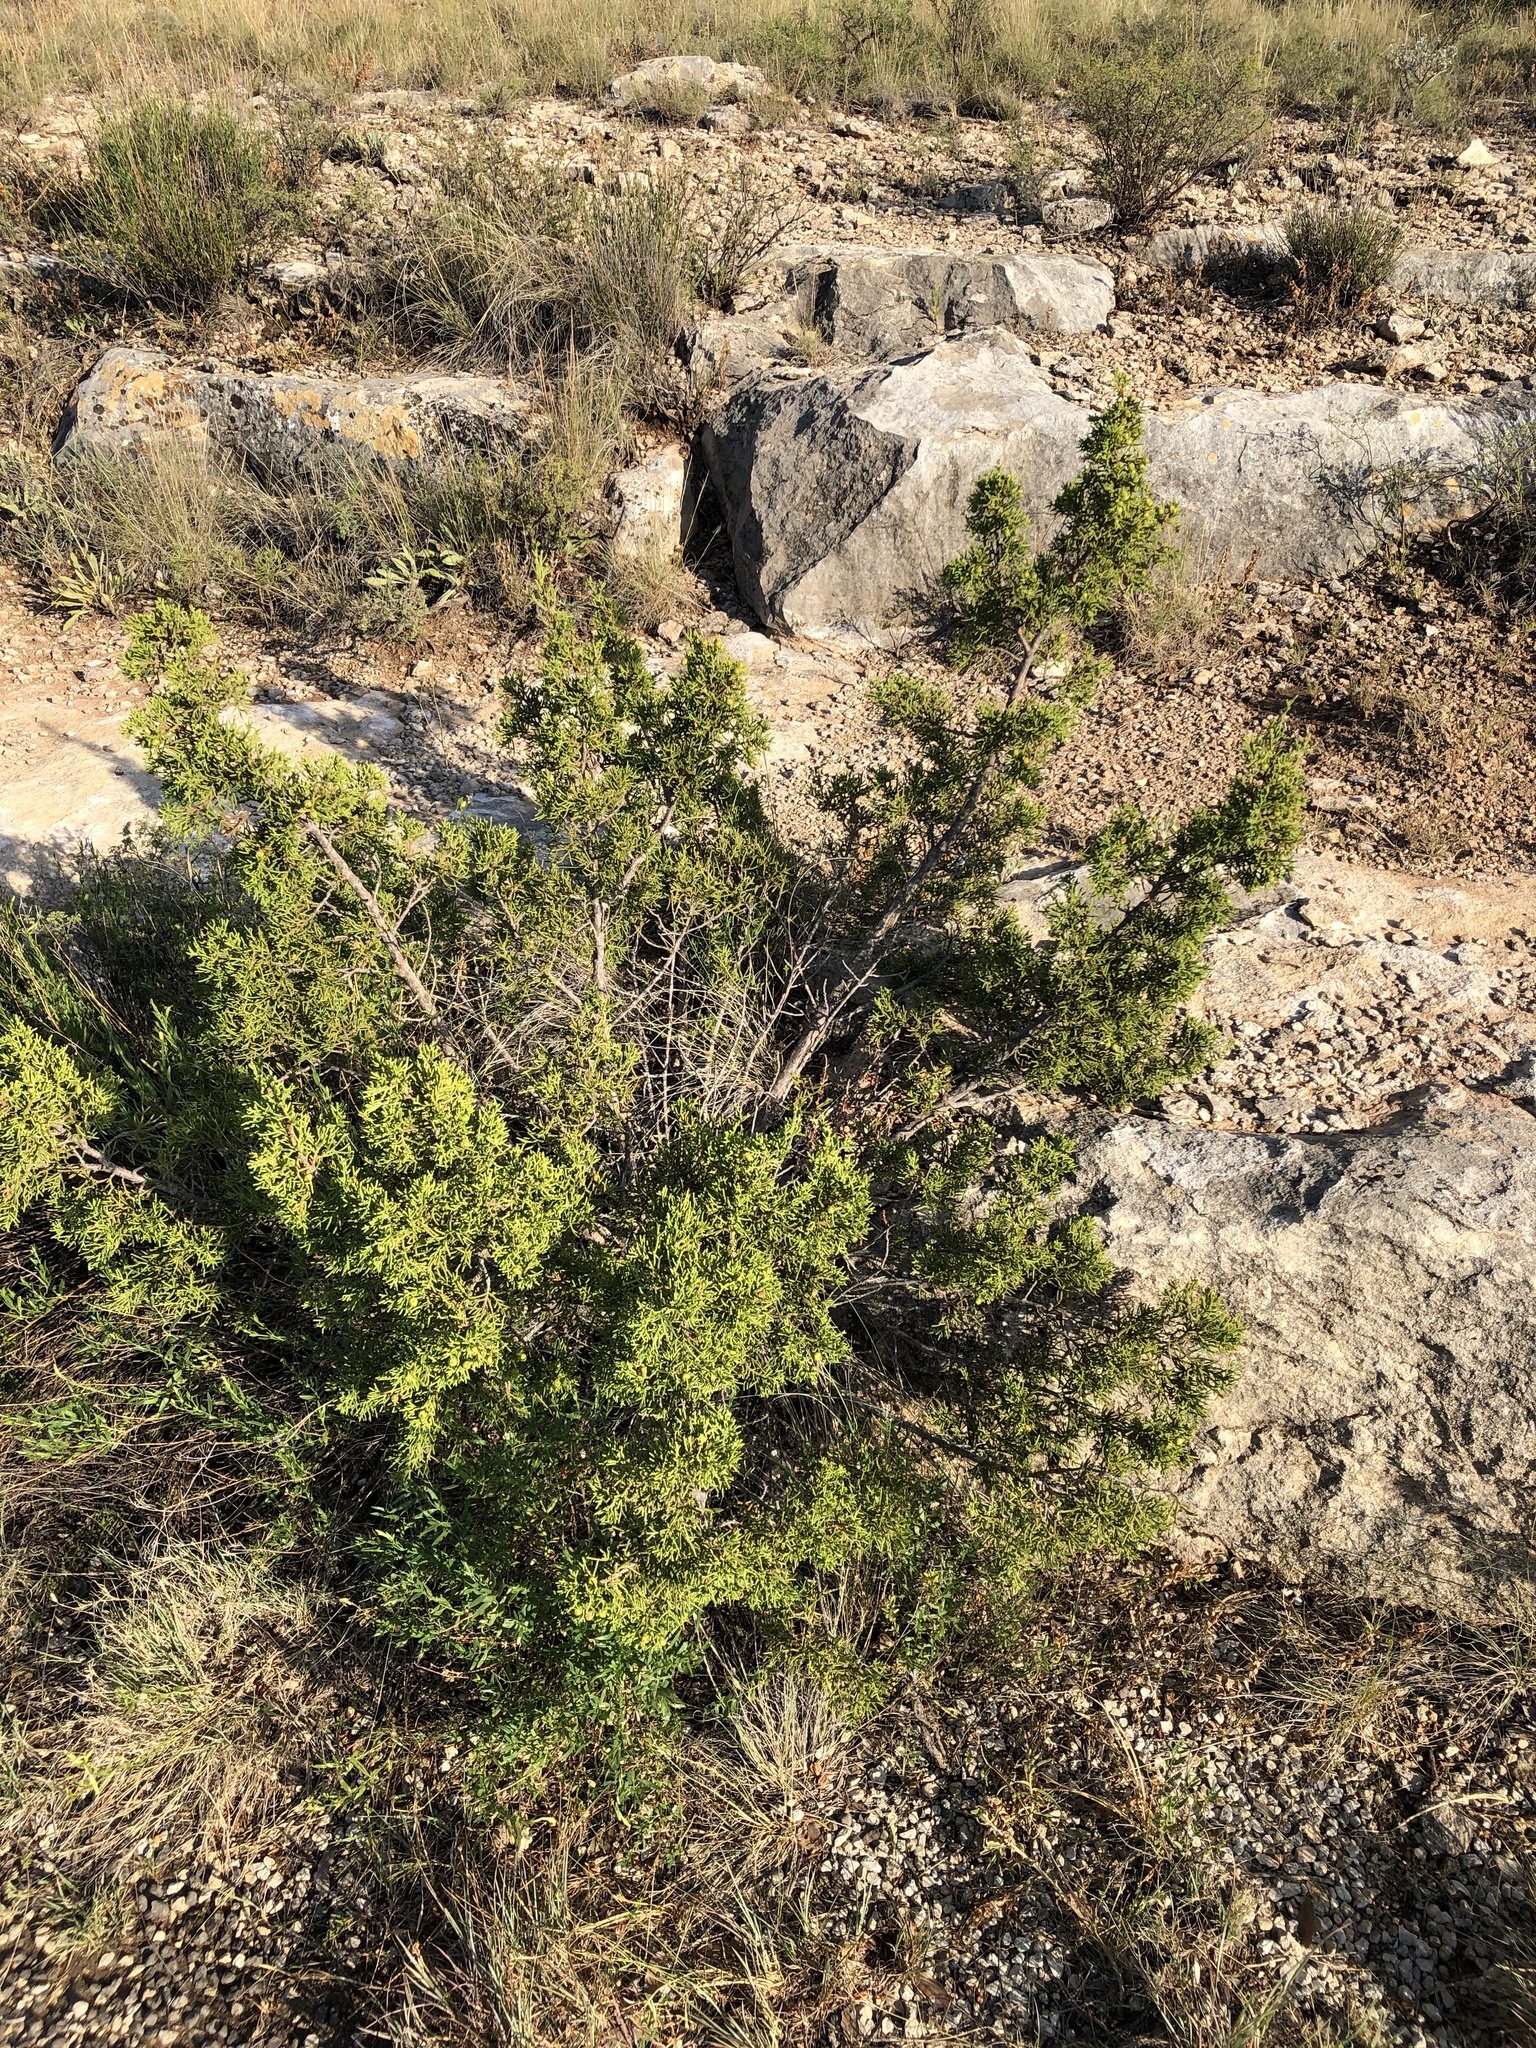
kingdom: Plantae
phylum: Tracheophyta
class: Pinopsida
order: Pinales
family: Cupressaceae
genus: Juniperus
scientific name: Juniperus pinchotii
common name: Pinchot juniper
